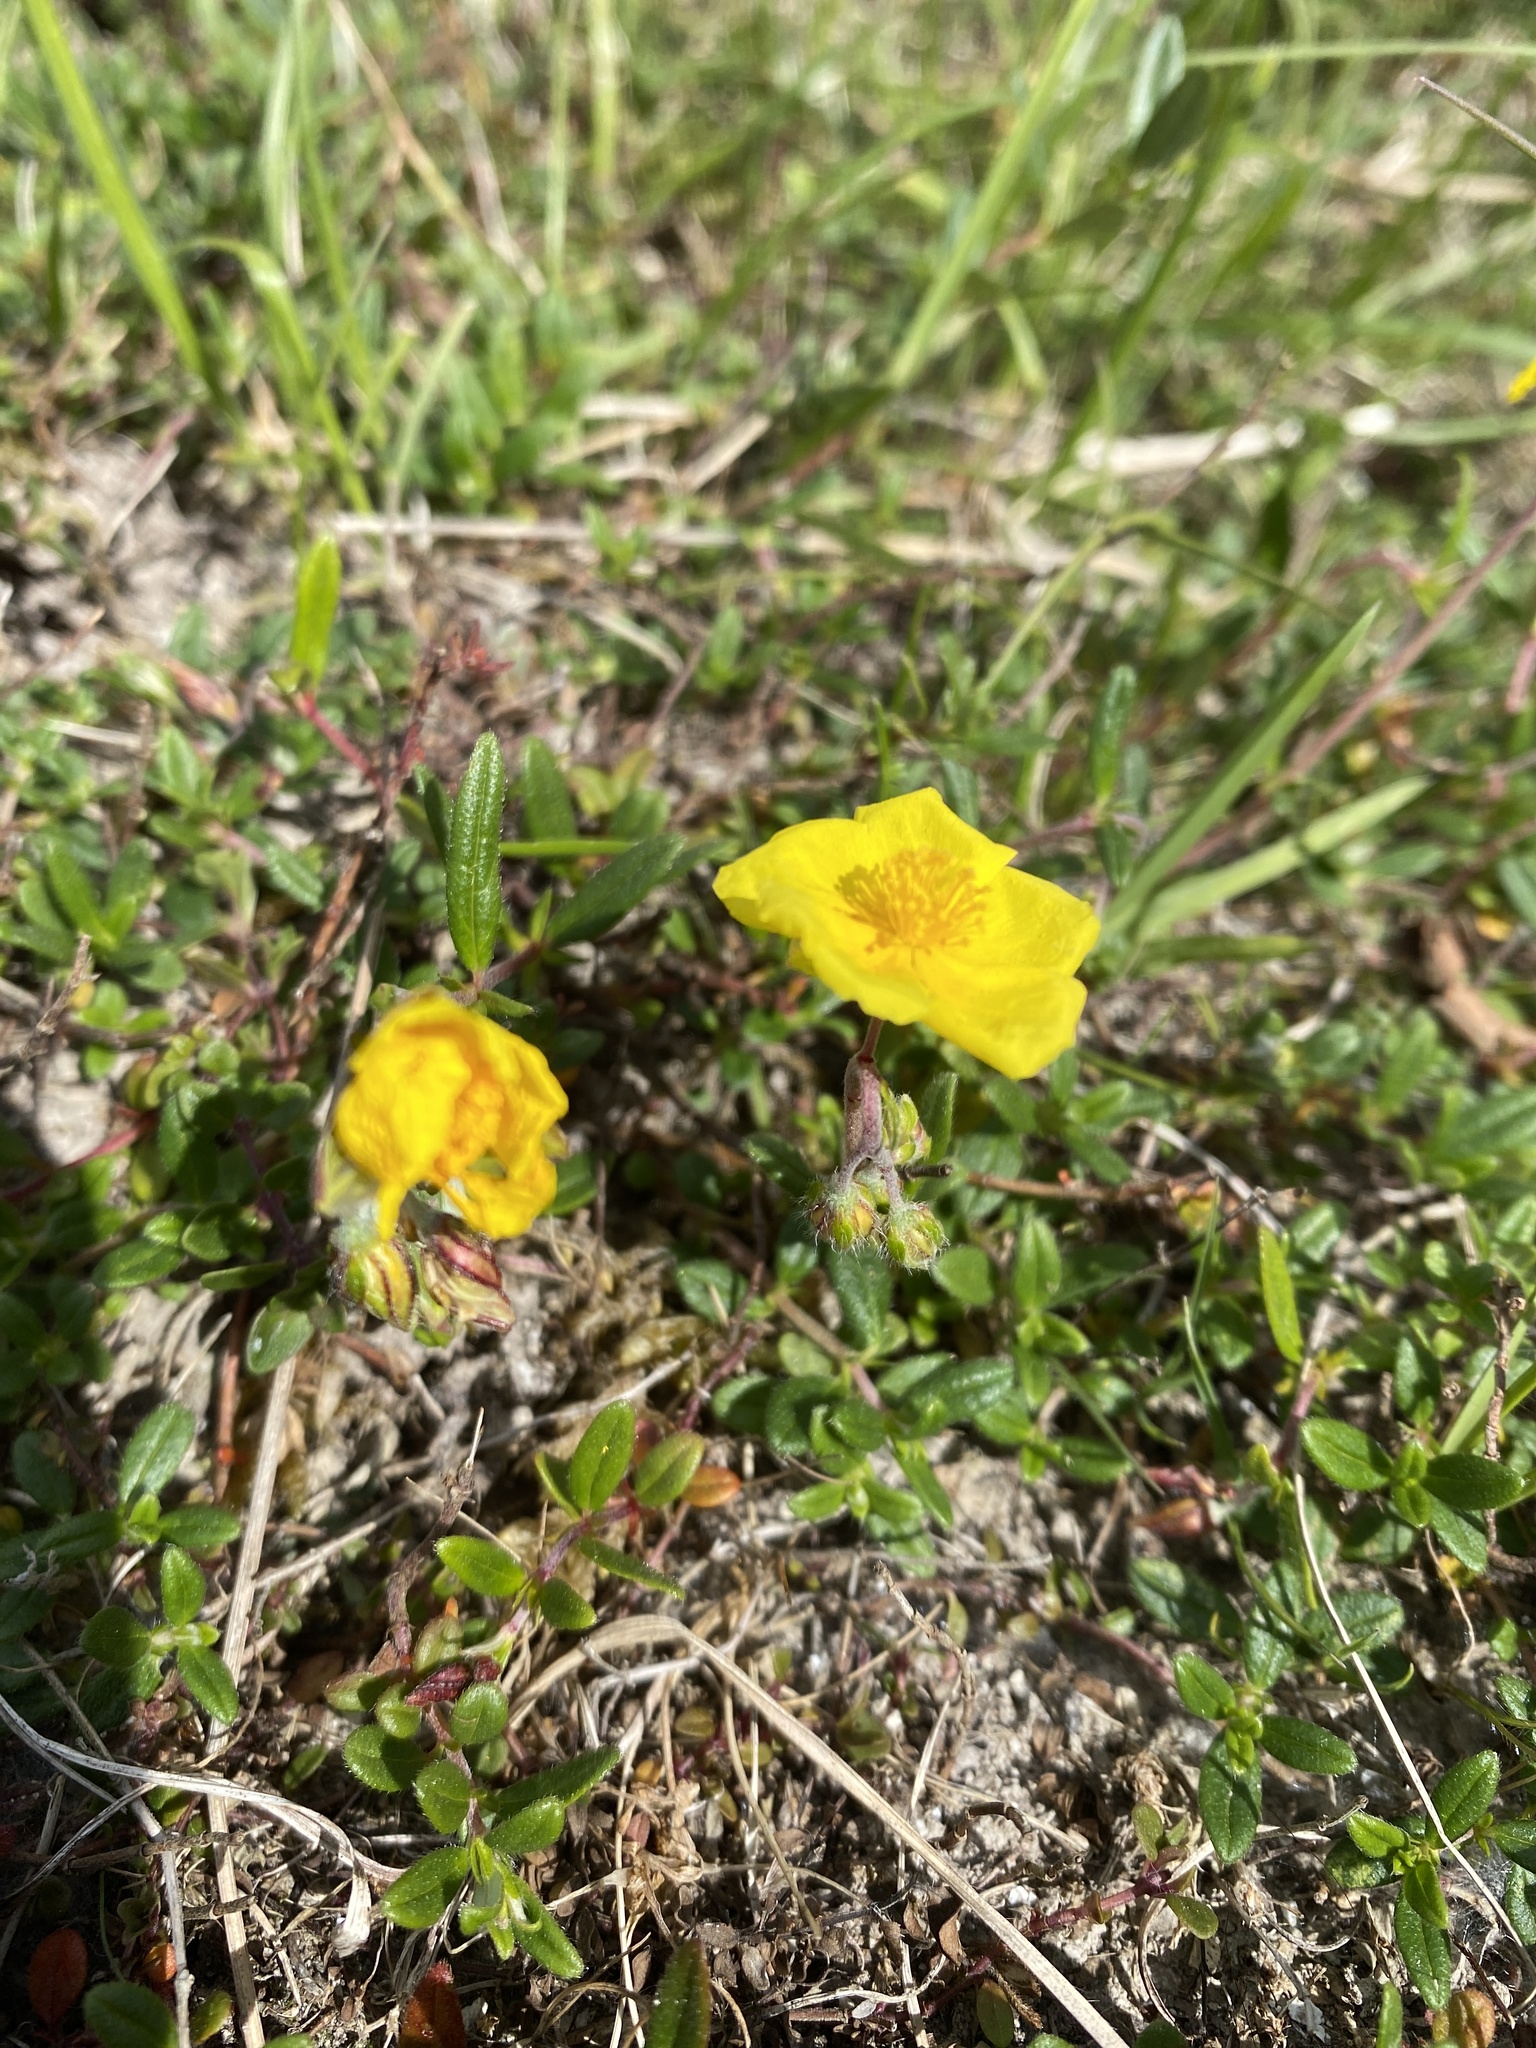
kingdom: Plantae
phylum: Tracheophyta
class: Magnoliopsida
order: Malvales
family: Cistaceae
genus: Helianthemum
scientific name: Helianthemum nummularium
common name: Common rock-rose
